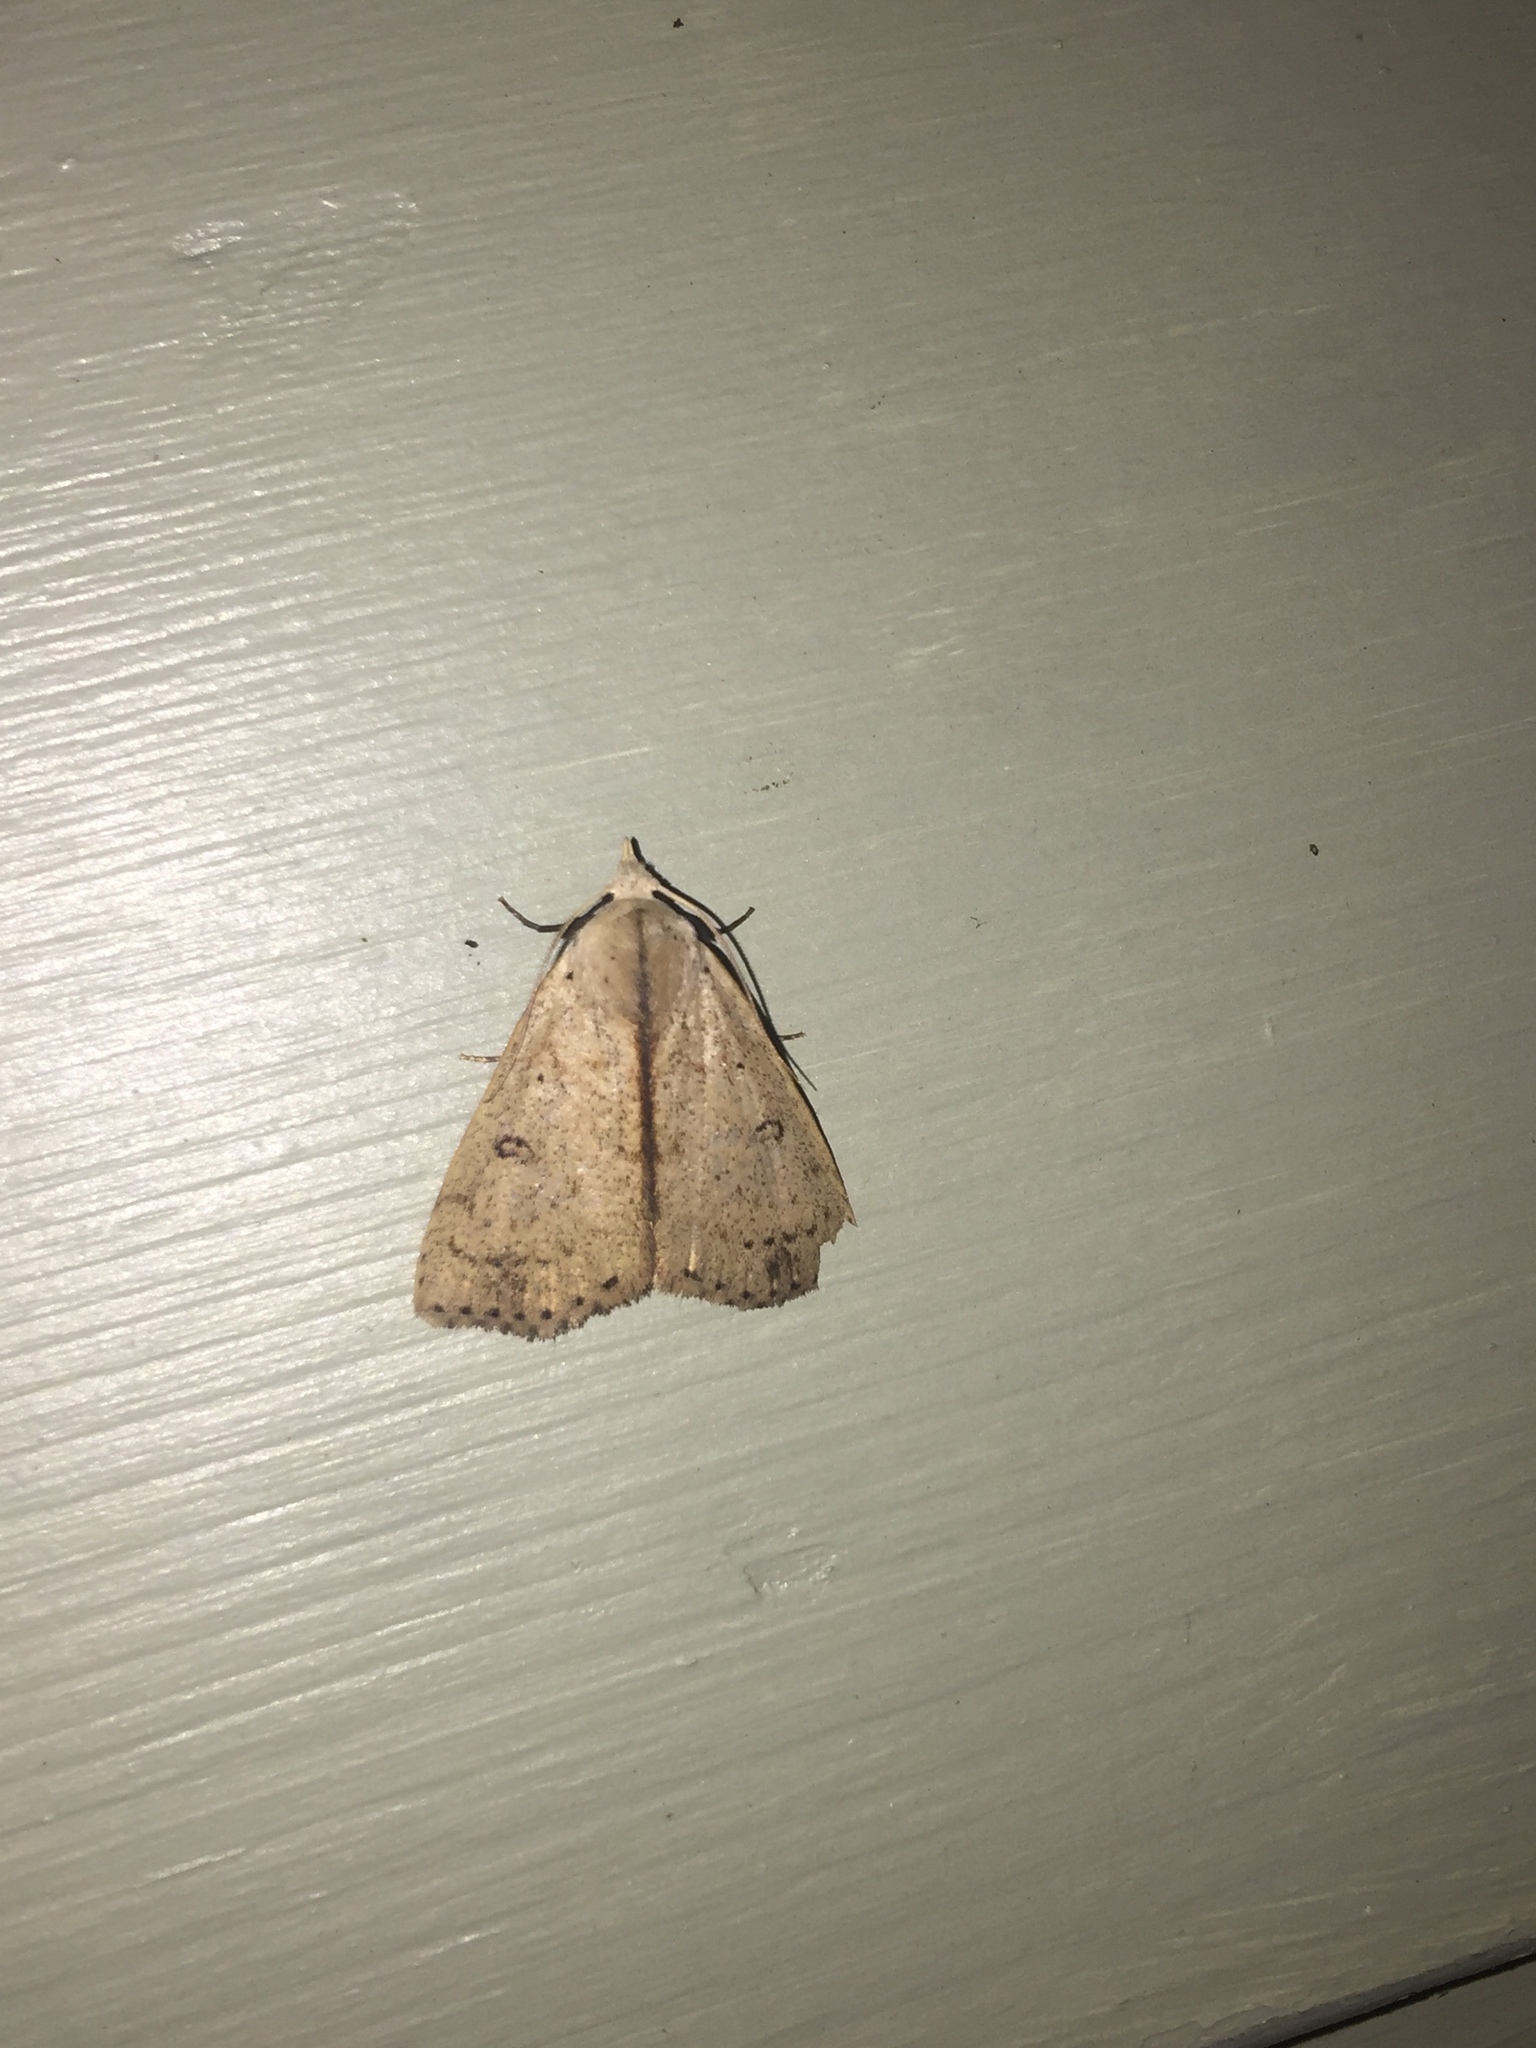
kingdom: Animalia
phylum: Arthropoda
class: Insecta
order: Lepidoptera
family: Erebidae
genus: Scolecocampa
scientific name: Scolecocampa liburna
